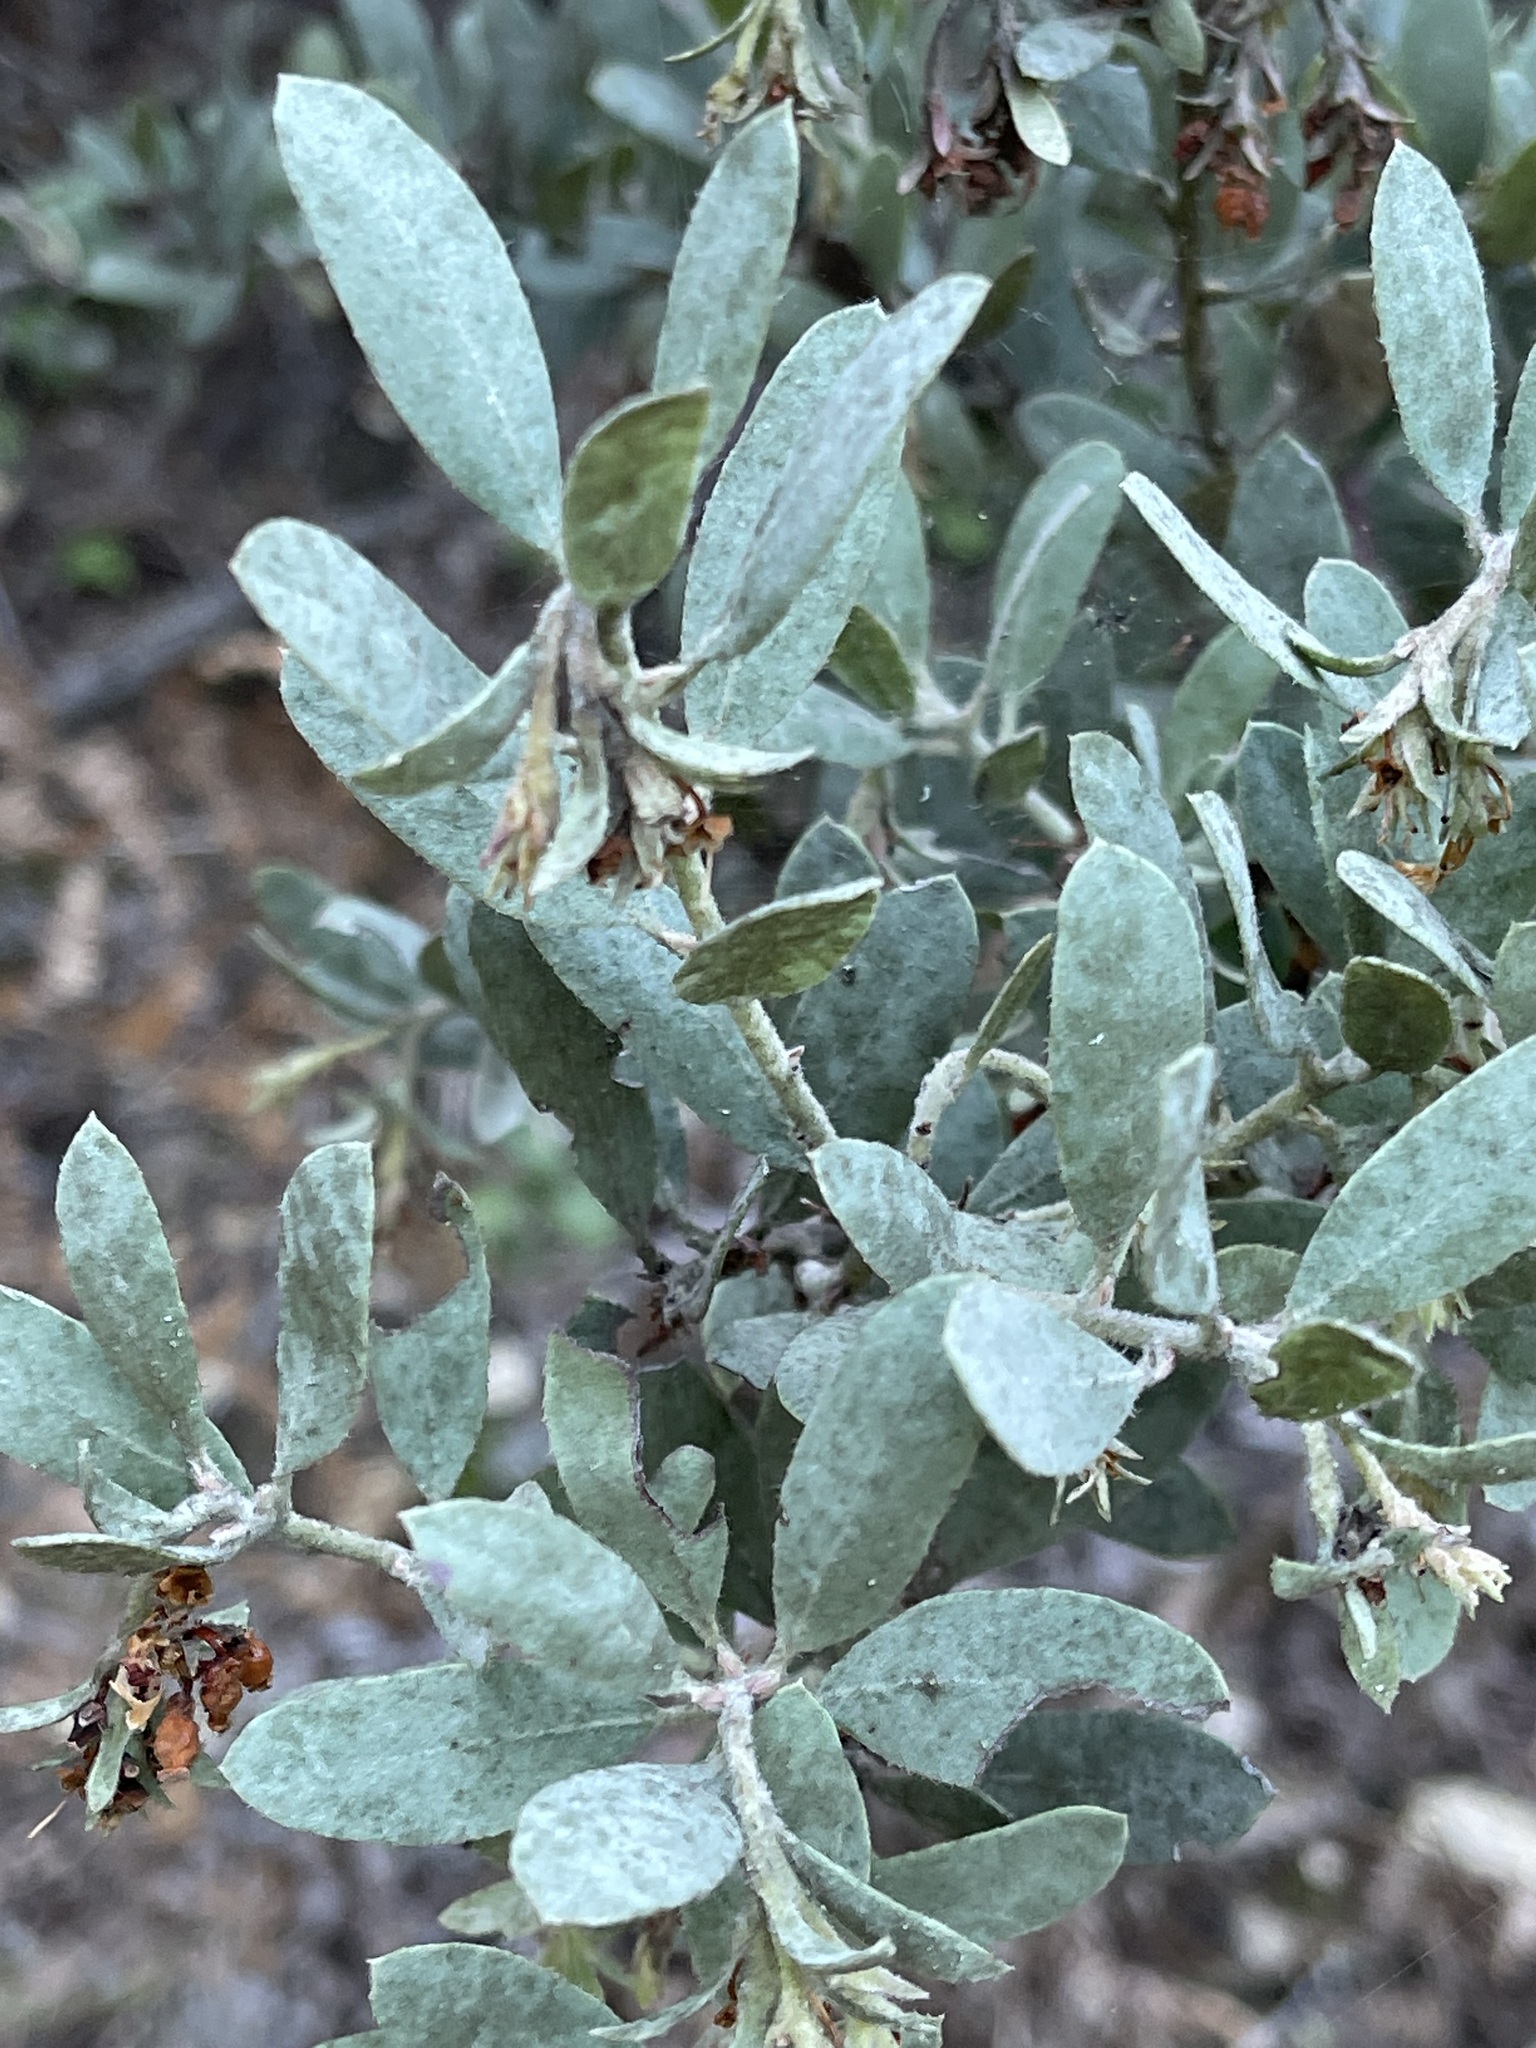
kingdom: Plantae
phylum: Tracheophyta
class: Magnoliopsida
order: Ericales
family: Ericaceae
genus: Arctostaphylos
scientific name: Arctostaphylos silvicola
